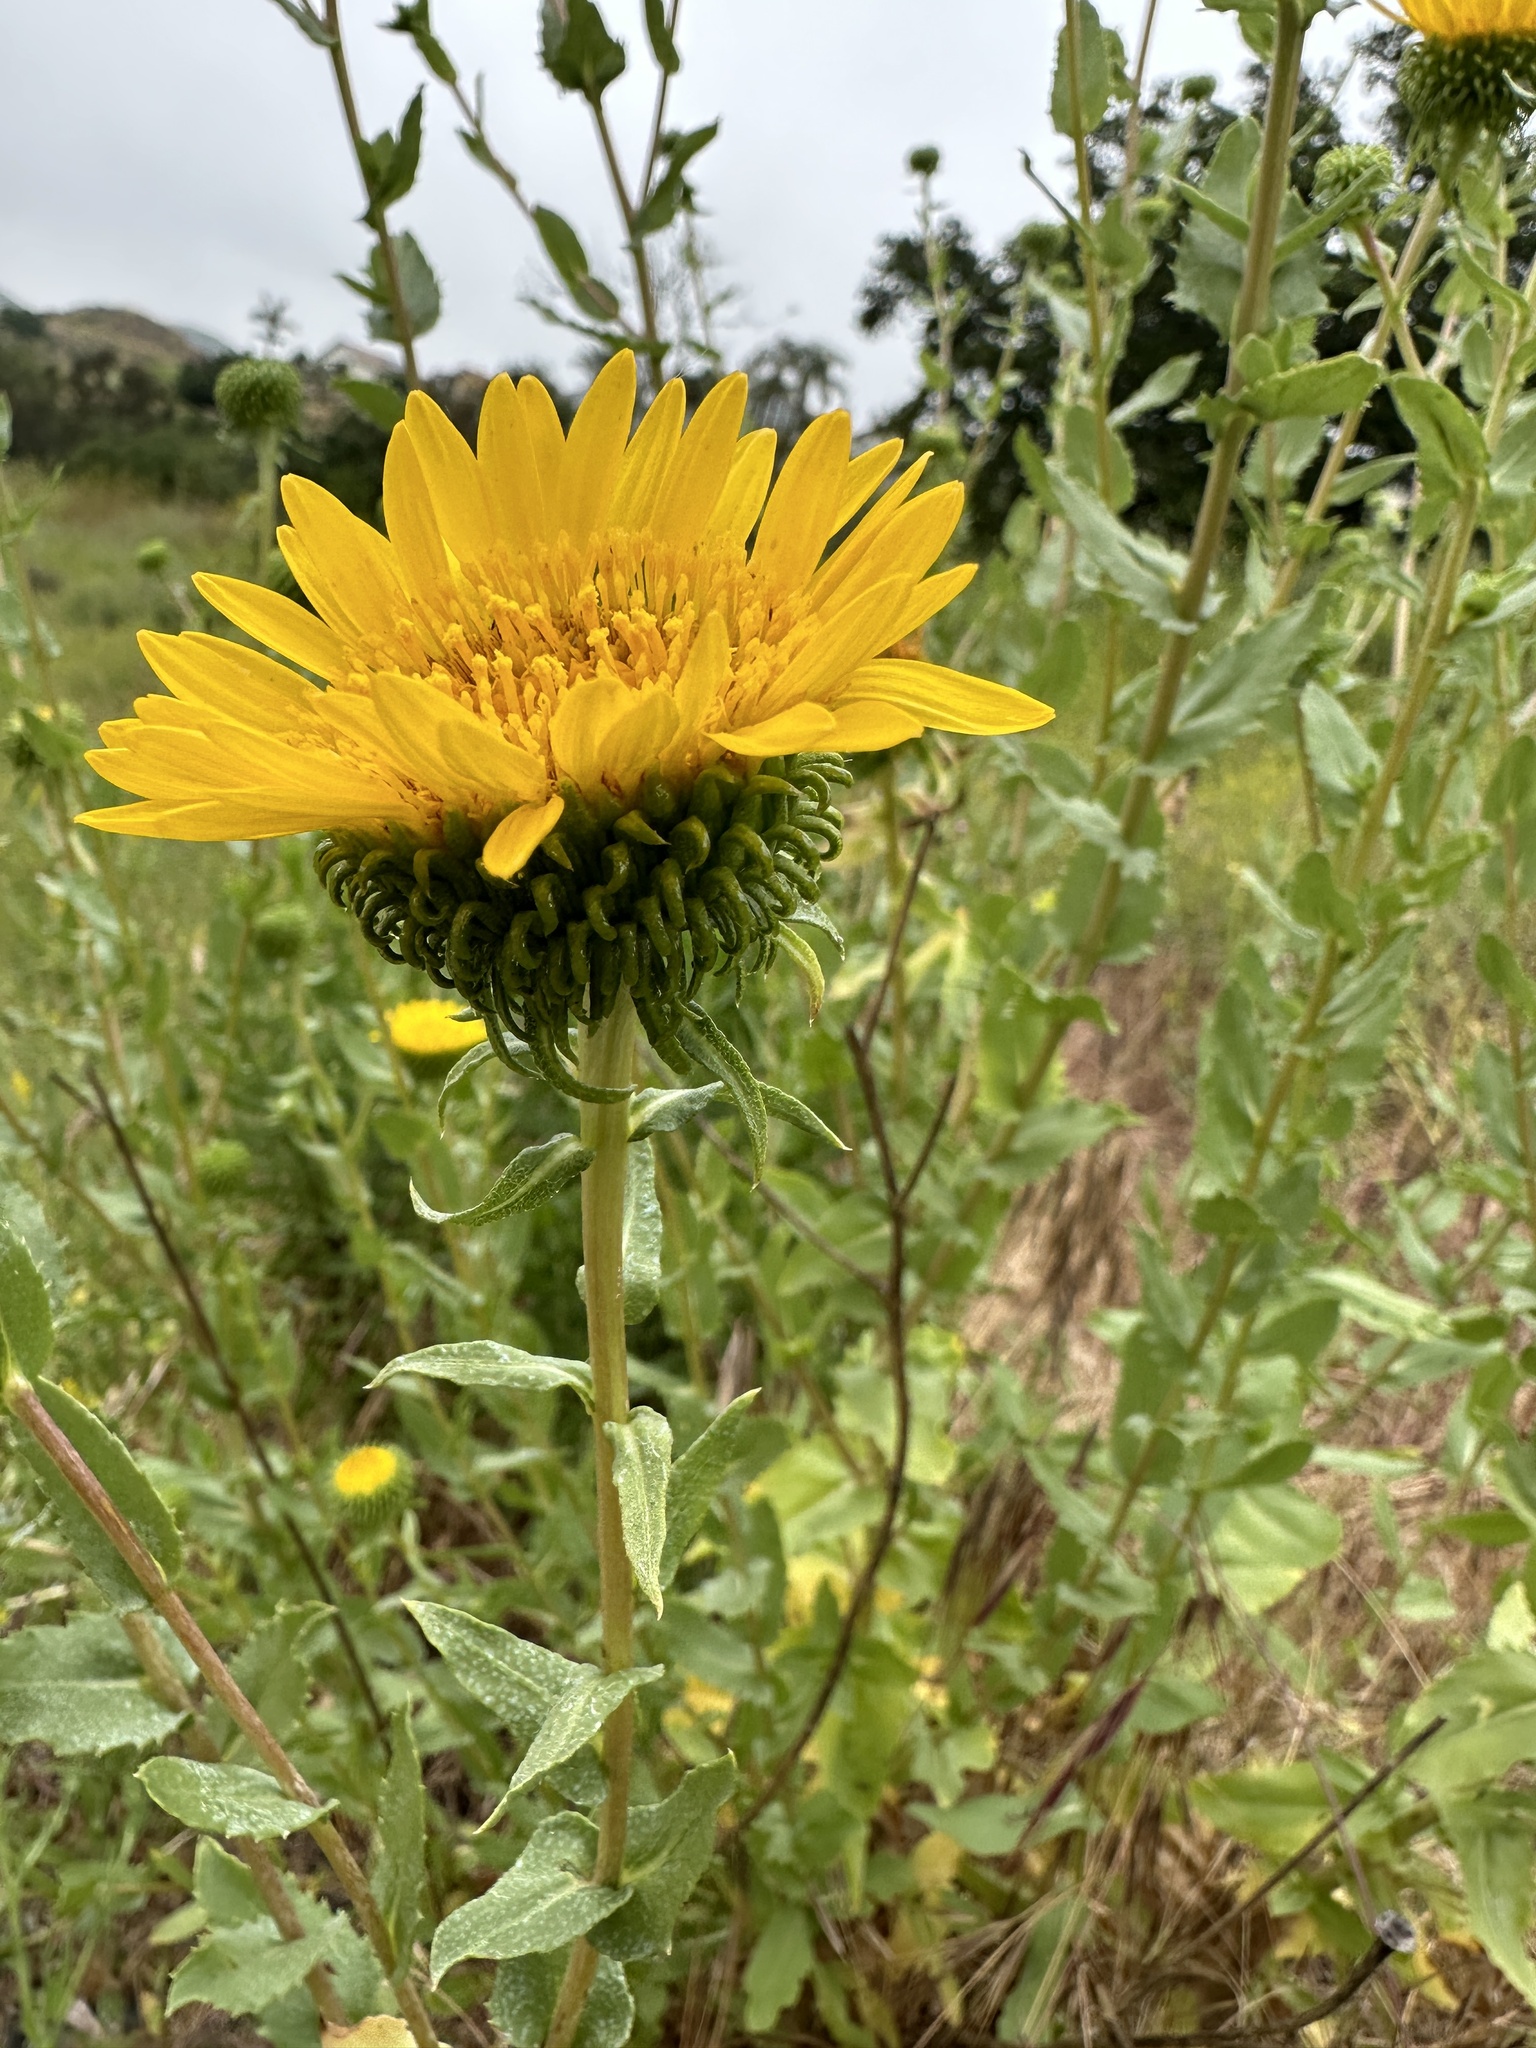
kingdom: Plantae
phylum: Tracheophyta
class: Magnoliopsida
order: Asterales
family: Asteraceae
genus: Grindelia
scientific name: Grindelia hirsutula
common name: Hairy gumweed
